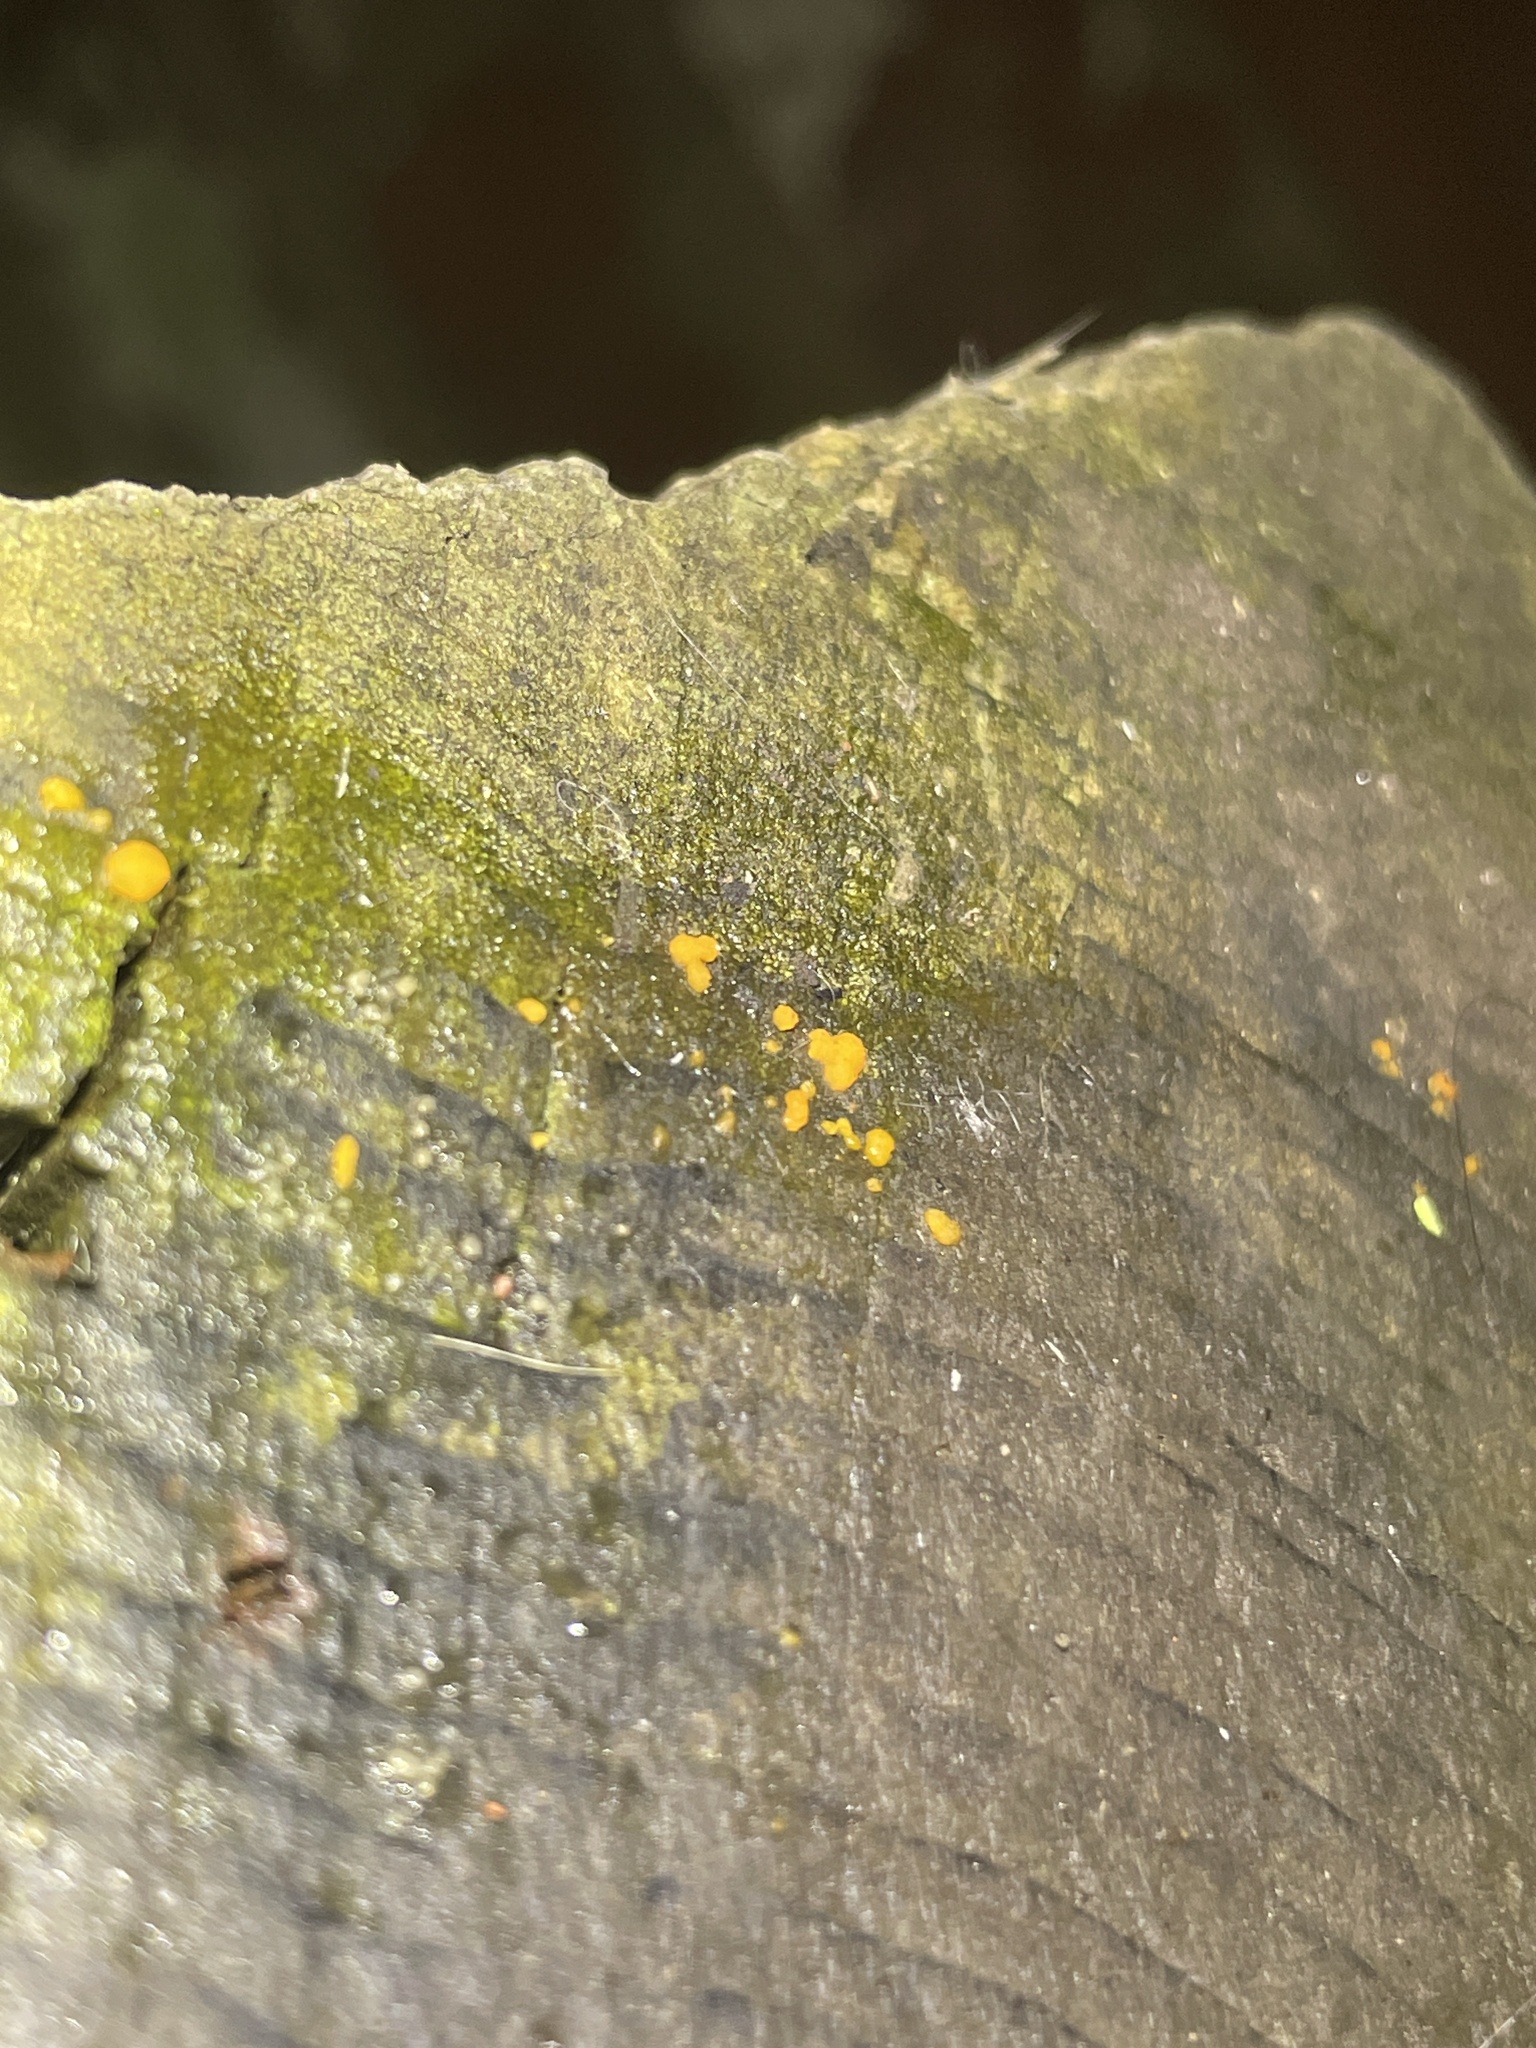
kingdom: Fungi
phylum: Basidiomycota
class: Dacrymycetes
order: Dacrymycetales
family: Dacrymycetaceae
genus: Dacrymyces
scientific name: Dacrymyces stillatus
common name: Common jelly spot
